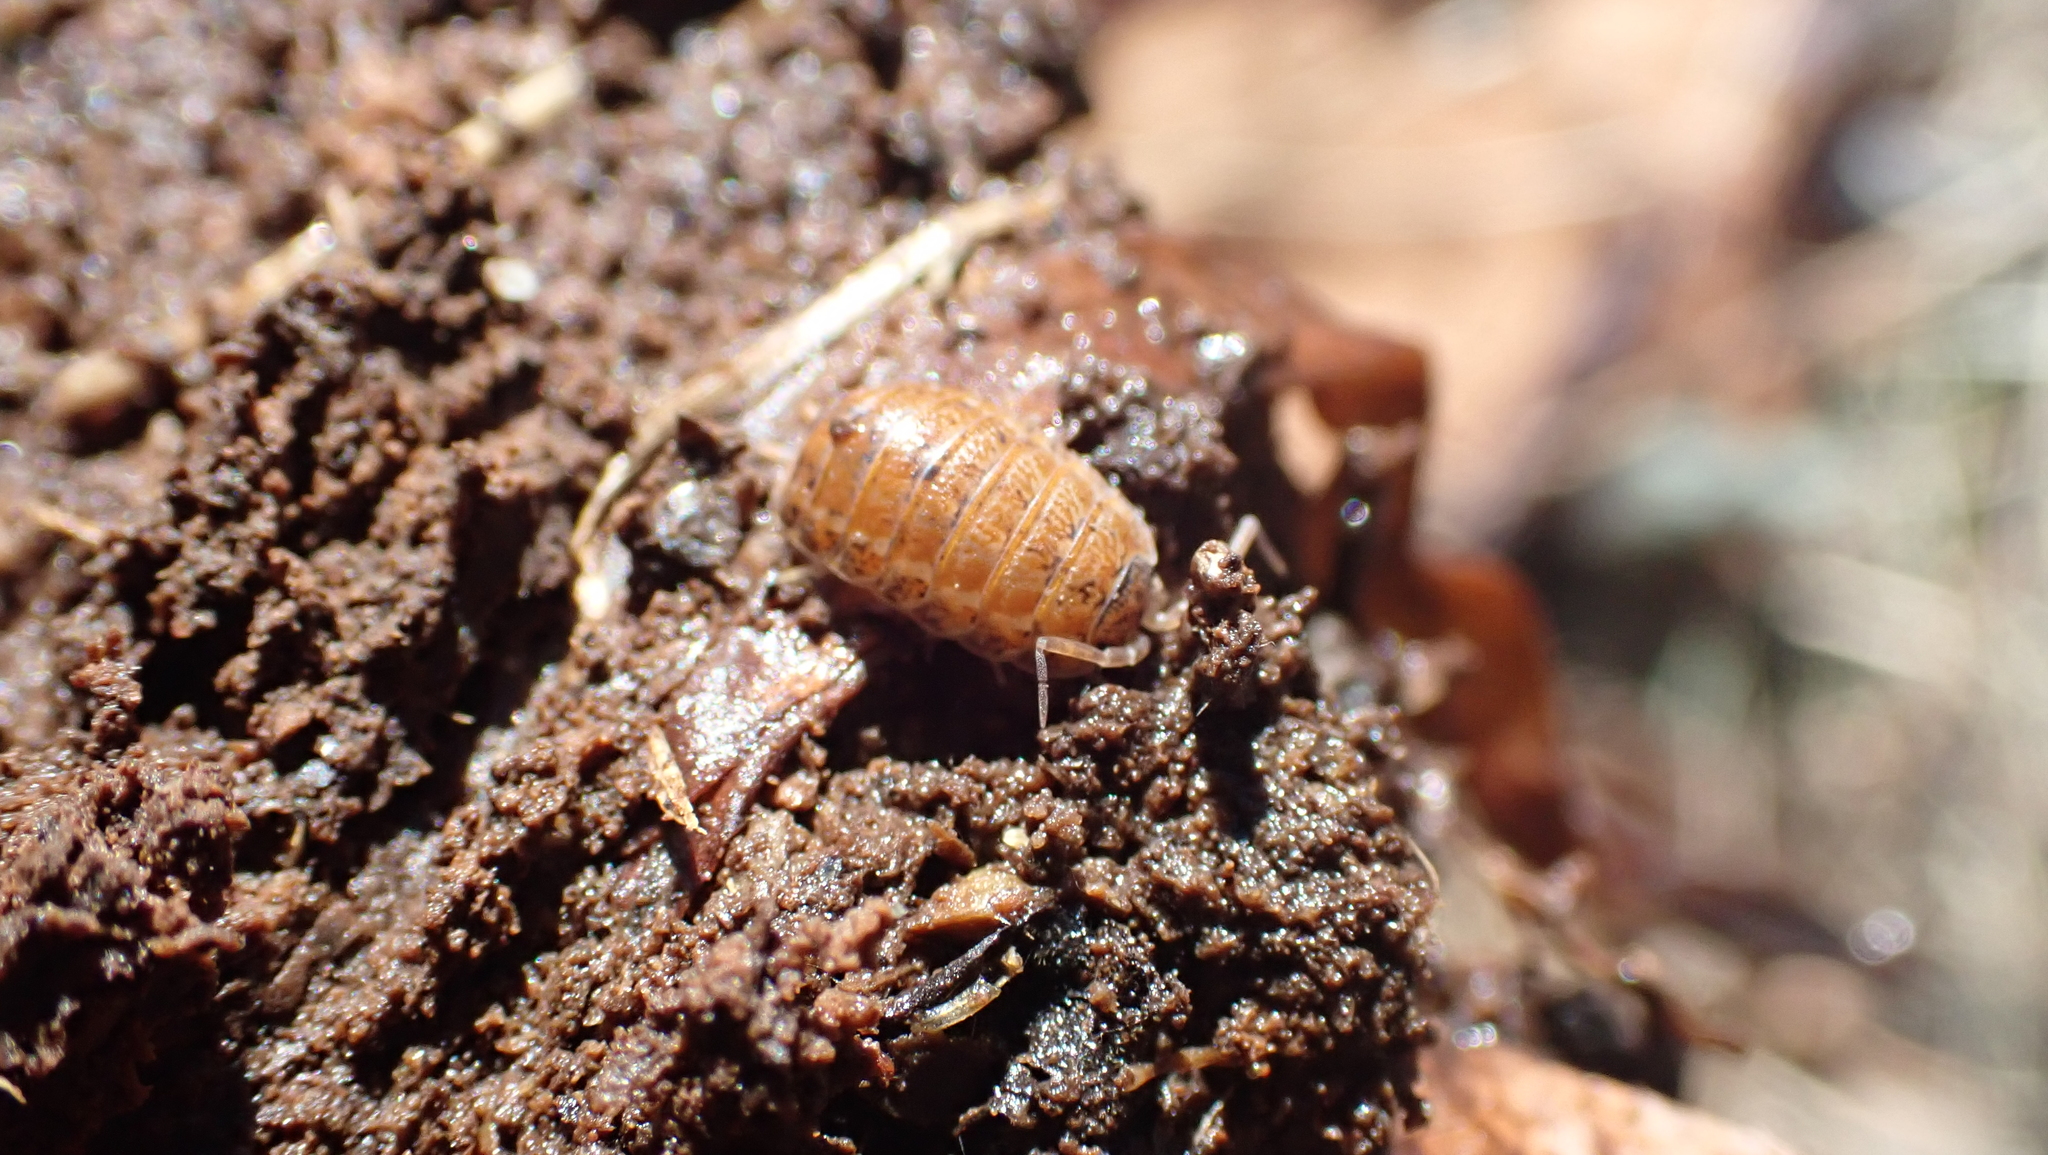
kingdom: Animalia
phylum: Arthropoda
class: Malacostraca
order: Isopoda
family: Trachelipodidae
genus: Trachelipus
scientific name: Trachelipus rathkii
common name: Isopod
